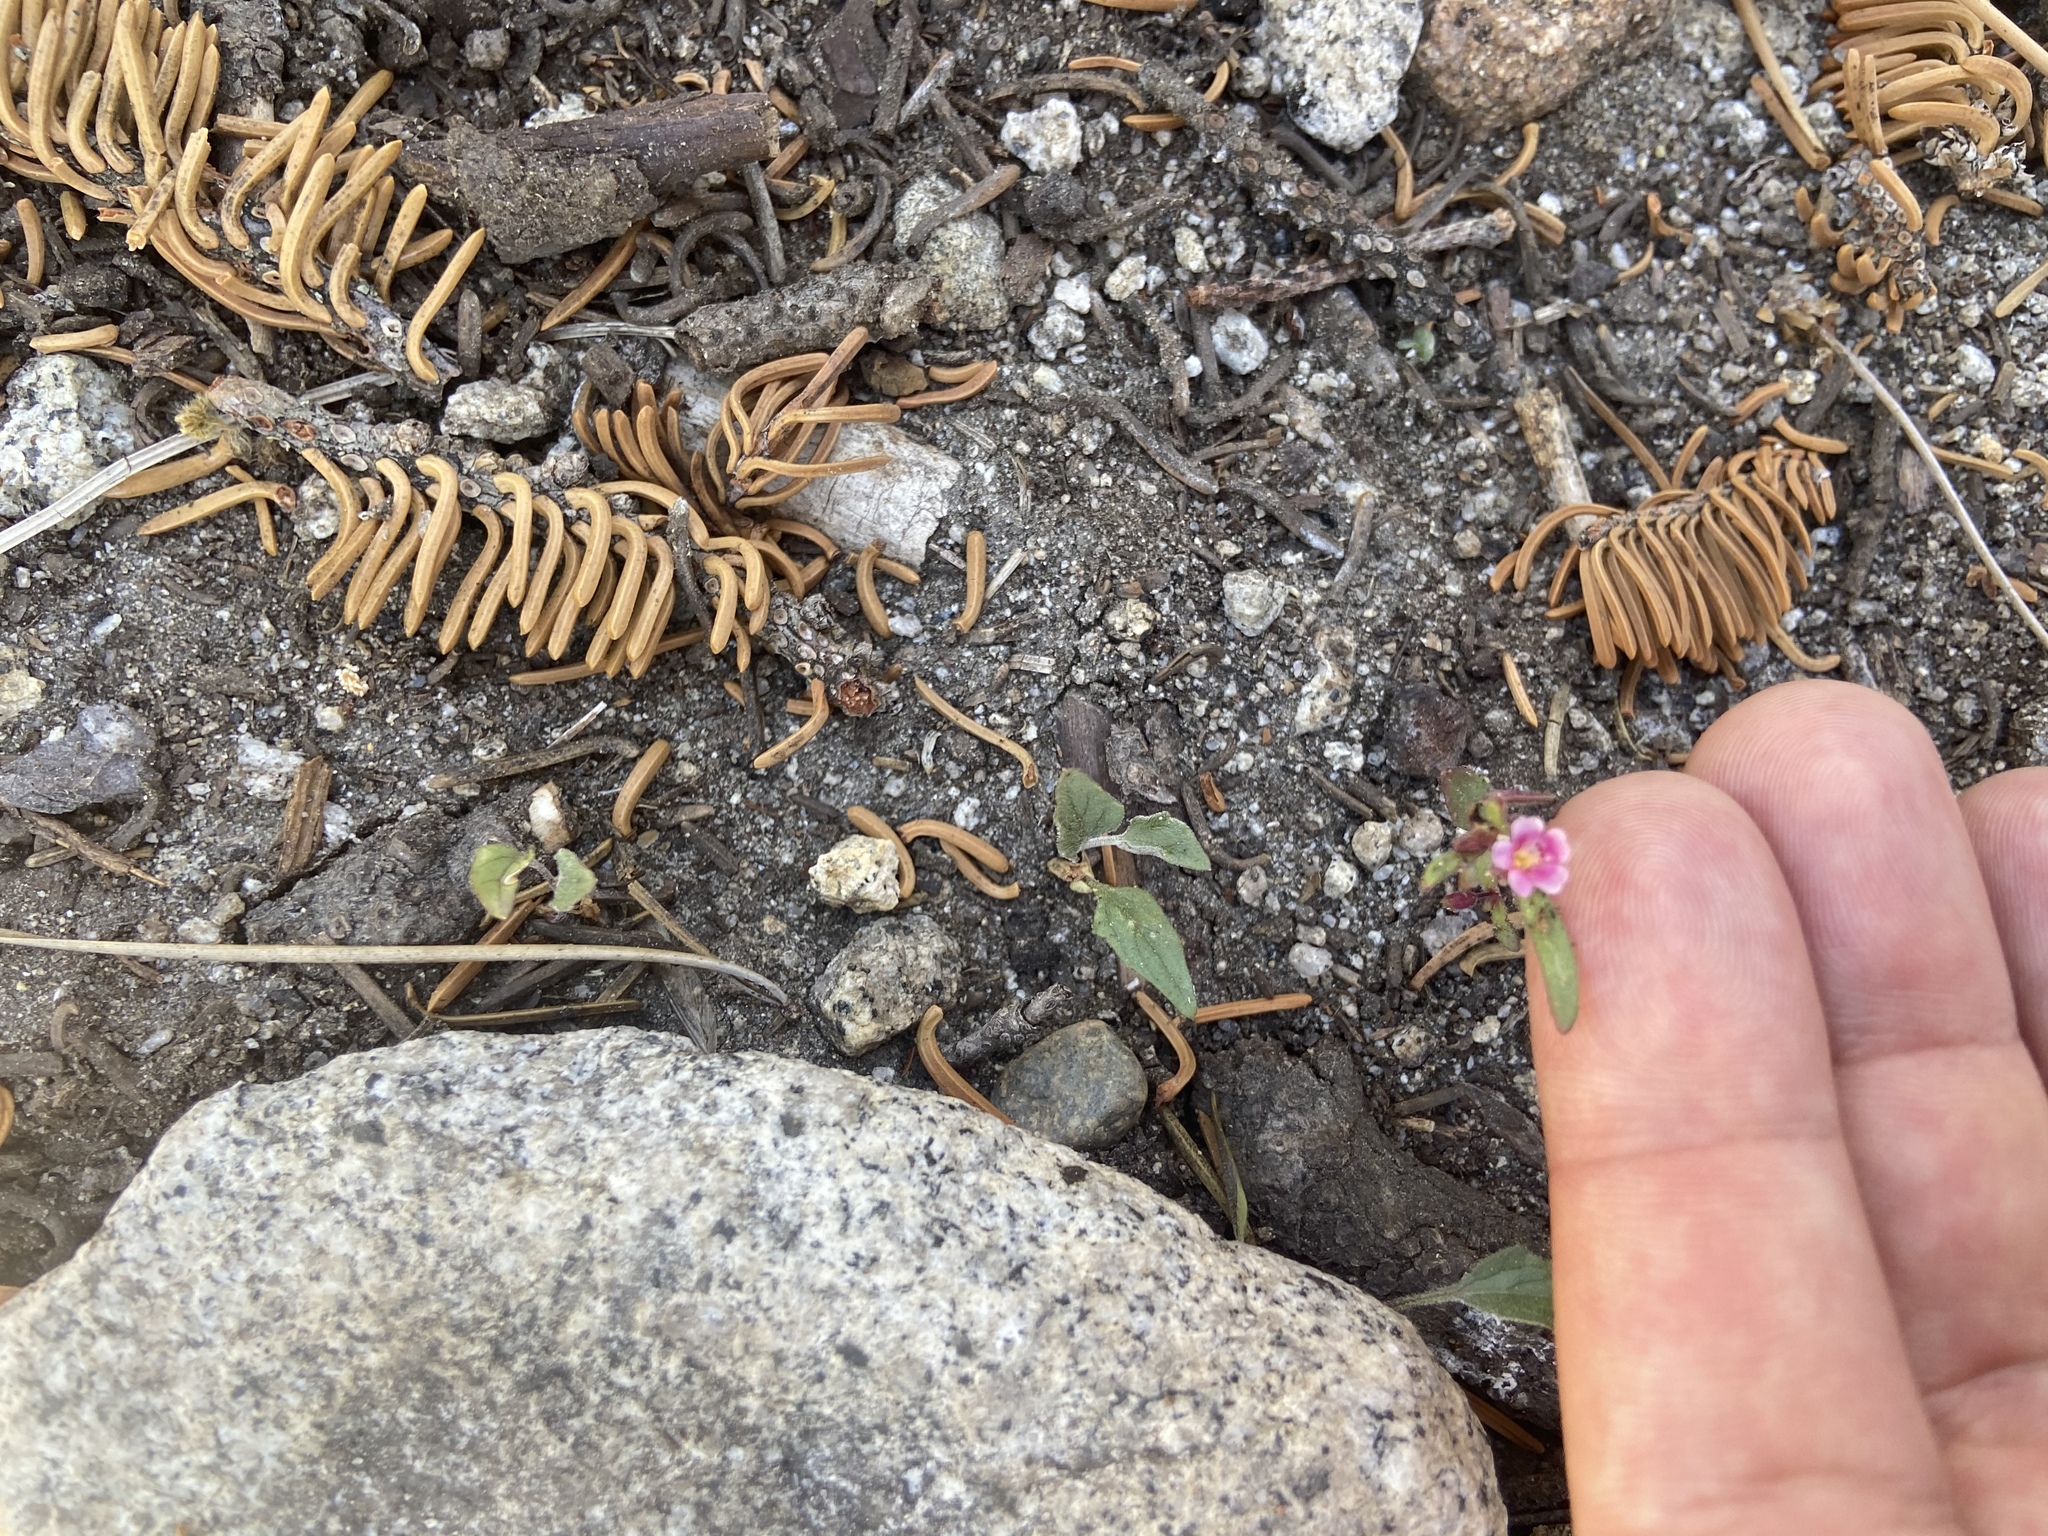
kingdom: Plantae
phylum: Tracheophyta
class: Magnoliopsida
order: Lamiales
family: Phrymaceae
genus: Erythranthe
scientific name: Erythranthe breweri
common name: Brewer's monkeyflower
